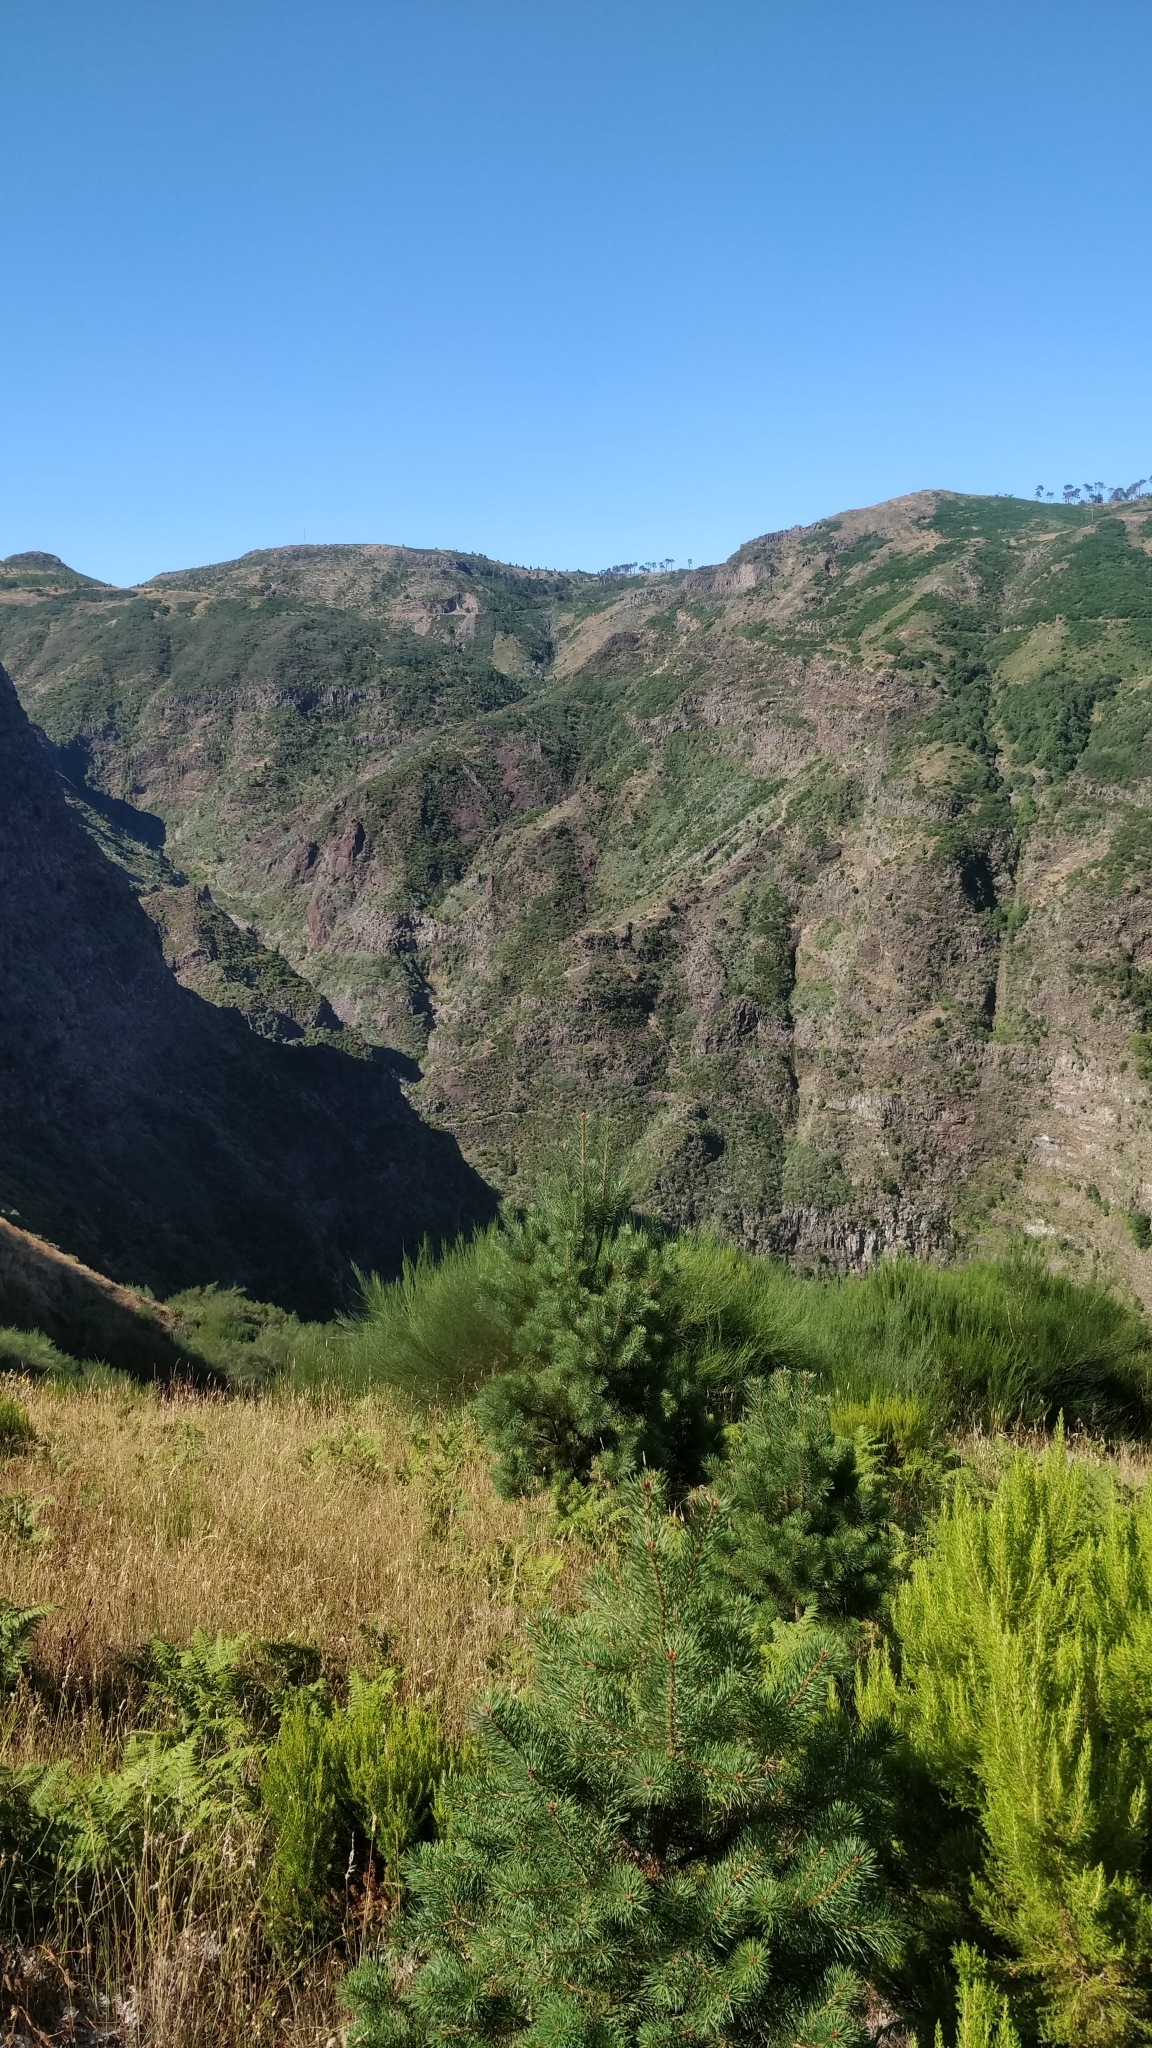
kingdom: Plantae
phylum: Tracheophyta
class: Pinopsida
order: Pinales
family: Pinaceae
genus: Pinus
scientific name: Pinus pinaster
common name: Maritime pine
